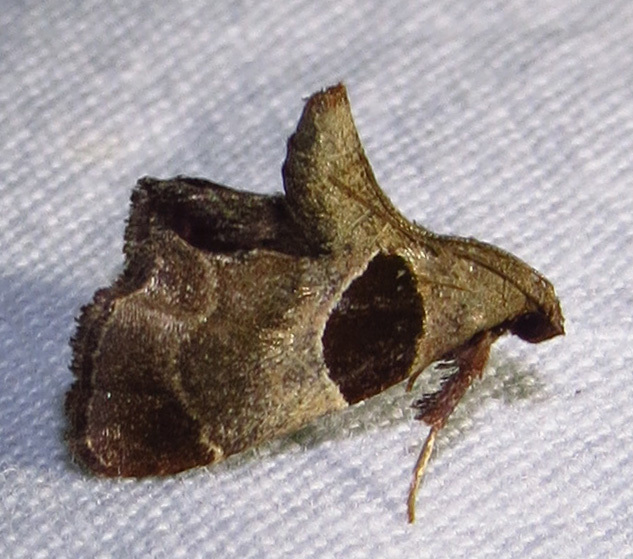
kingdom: Animalia
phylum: Arthropoda
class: Insecta
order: Lepidoptera
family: Pyralidae
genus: Tosale
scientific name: Tosale oviplagalis
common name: Dimorphic tosale moth
